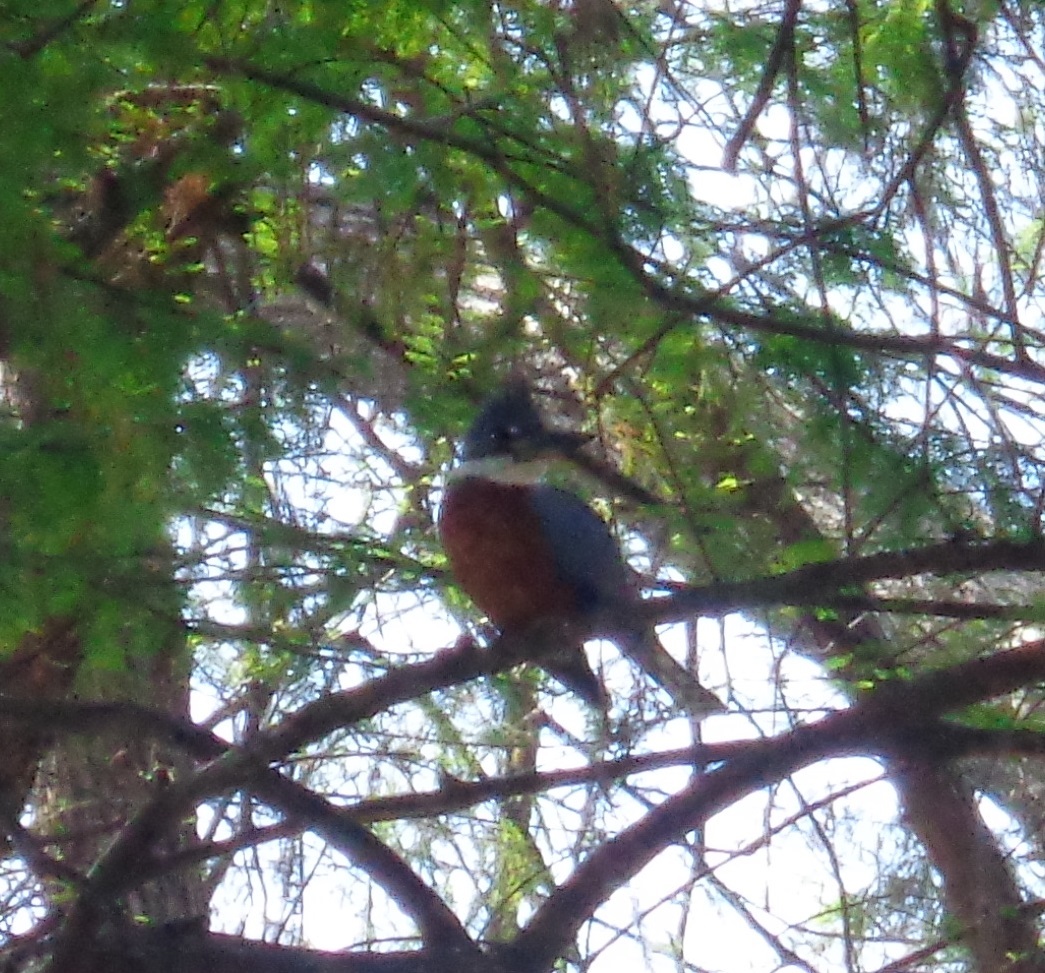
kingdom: Animalia
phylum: Chordata
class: Aves
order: Coraciiformes
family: Alcedinidae
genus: Megaceryle
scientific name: Megaceryle torquata
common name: Ringed kingfisher
